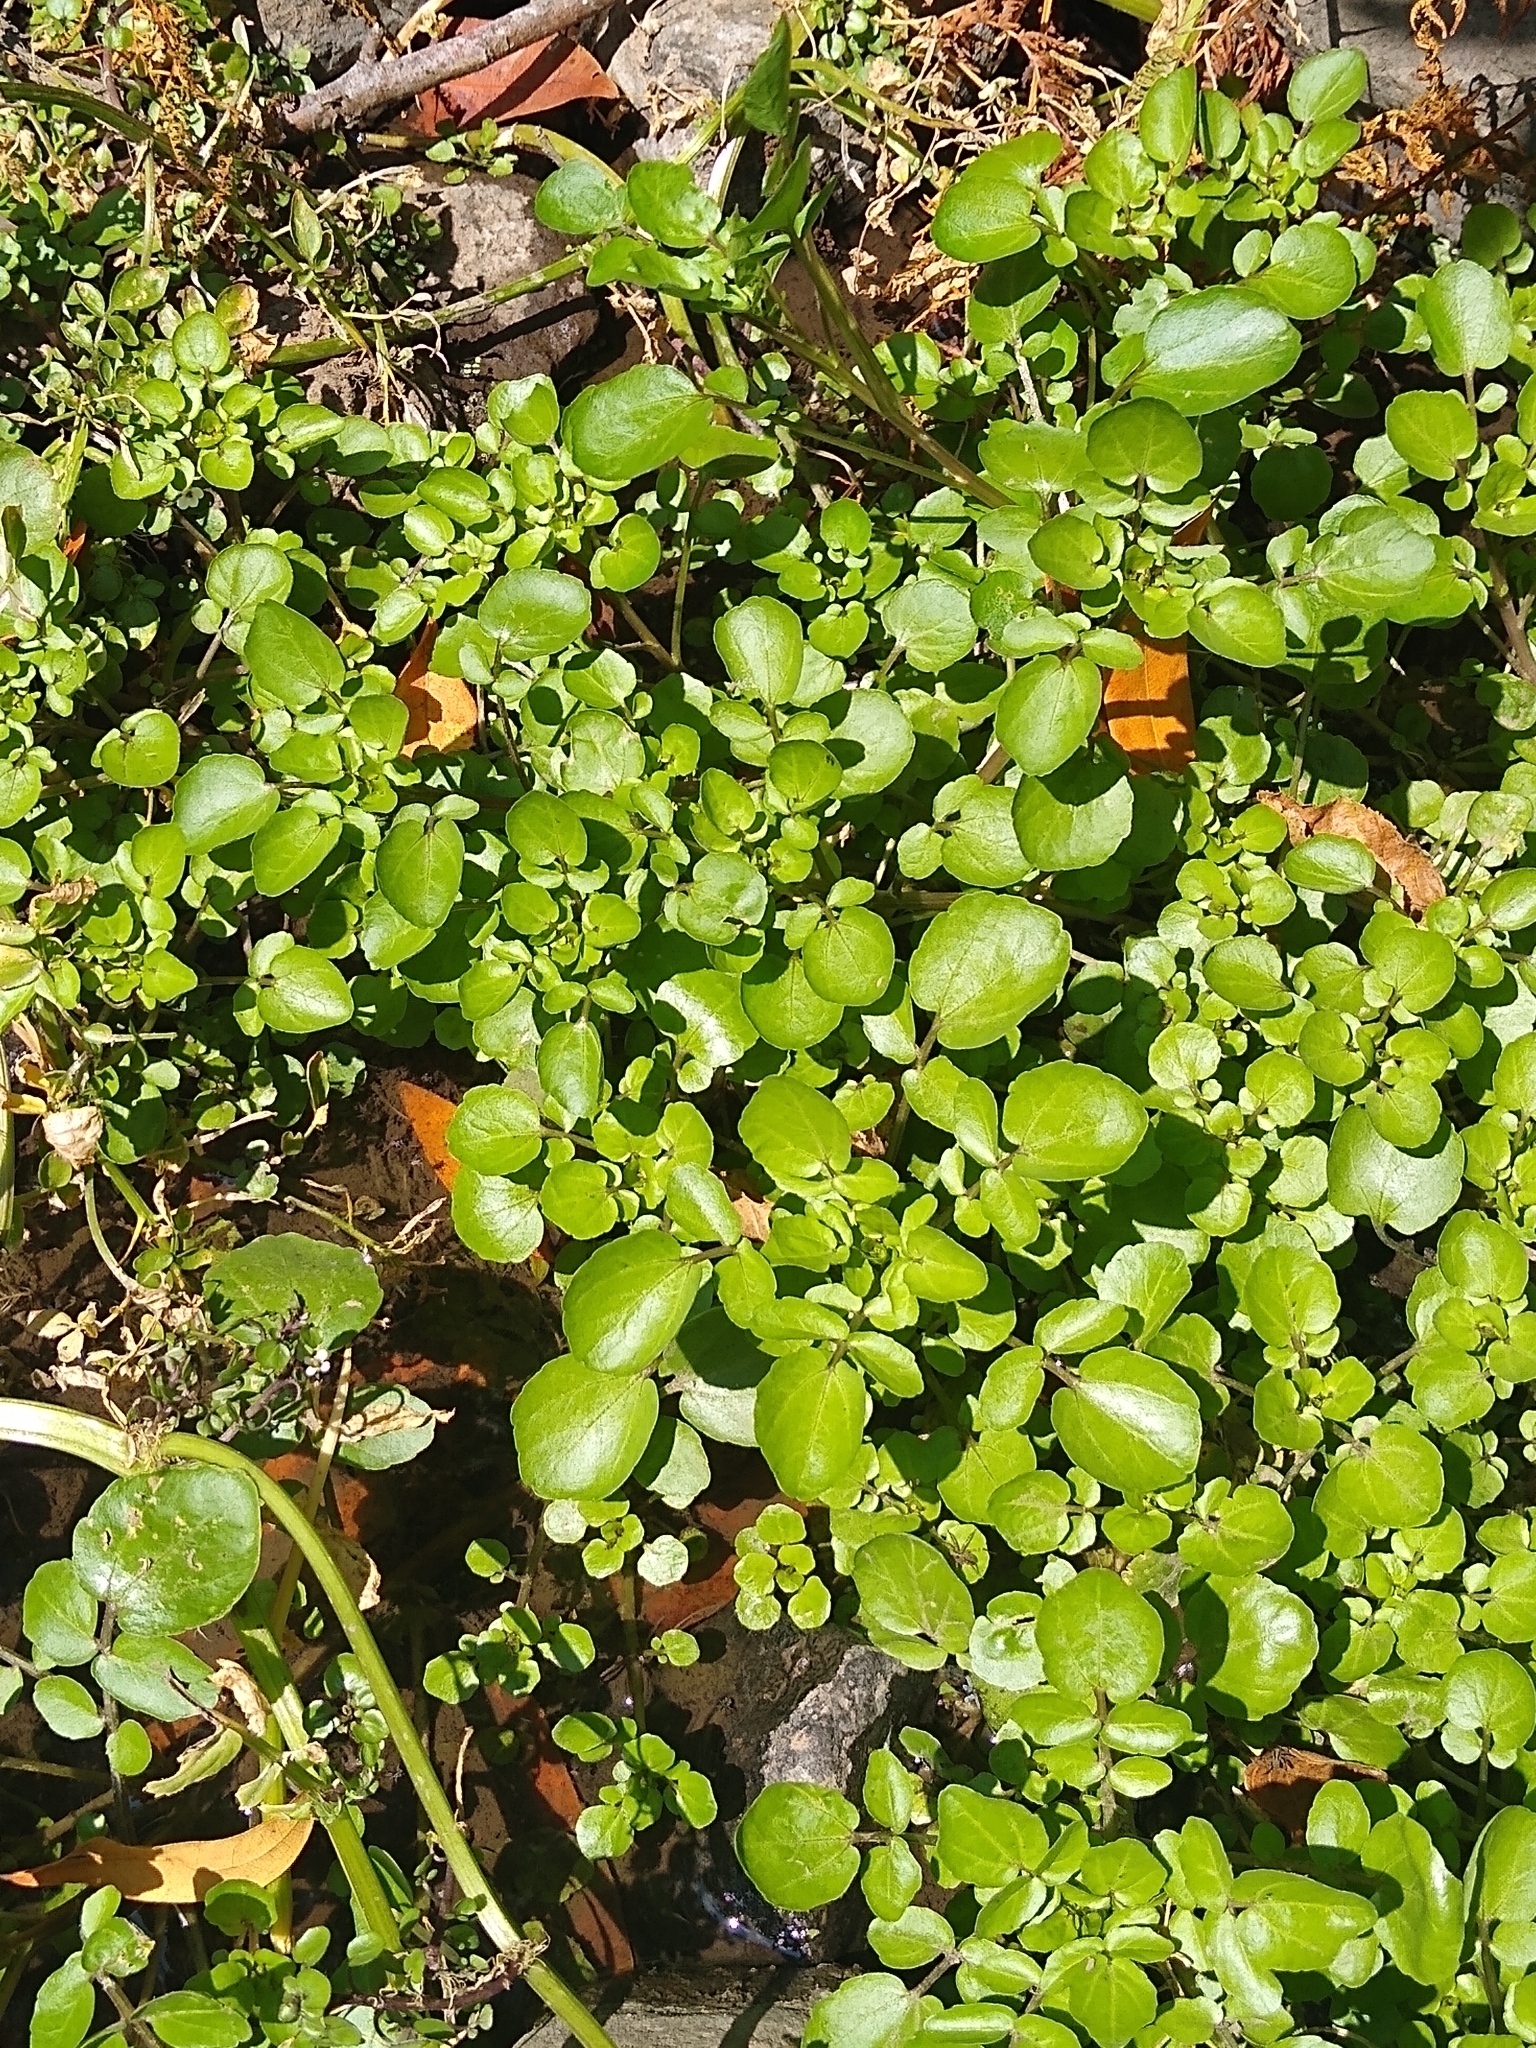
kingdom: Plantae
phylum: Tracheophyta
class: Magnoliopsida
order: Brassicales
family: Brassicaceae
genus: Nasturtium
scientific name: Nasturtium officinale
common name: Watercress
